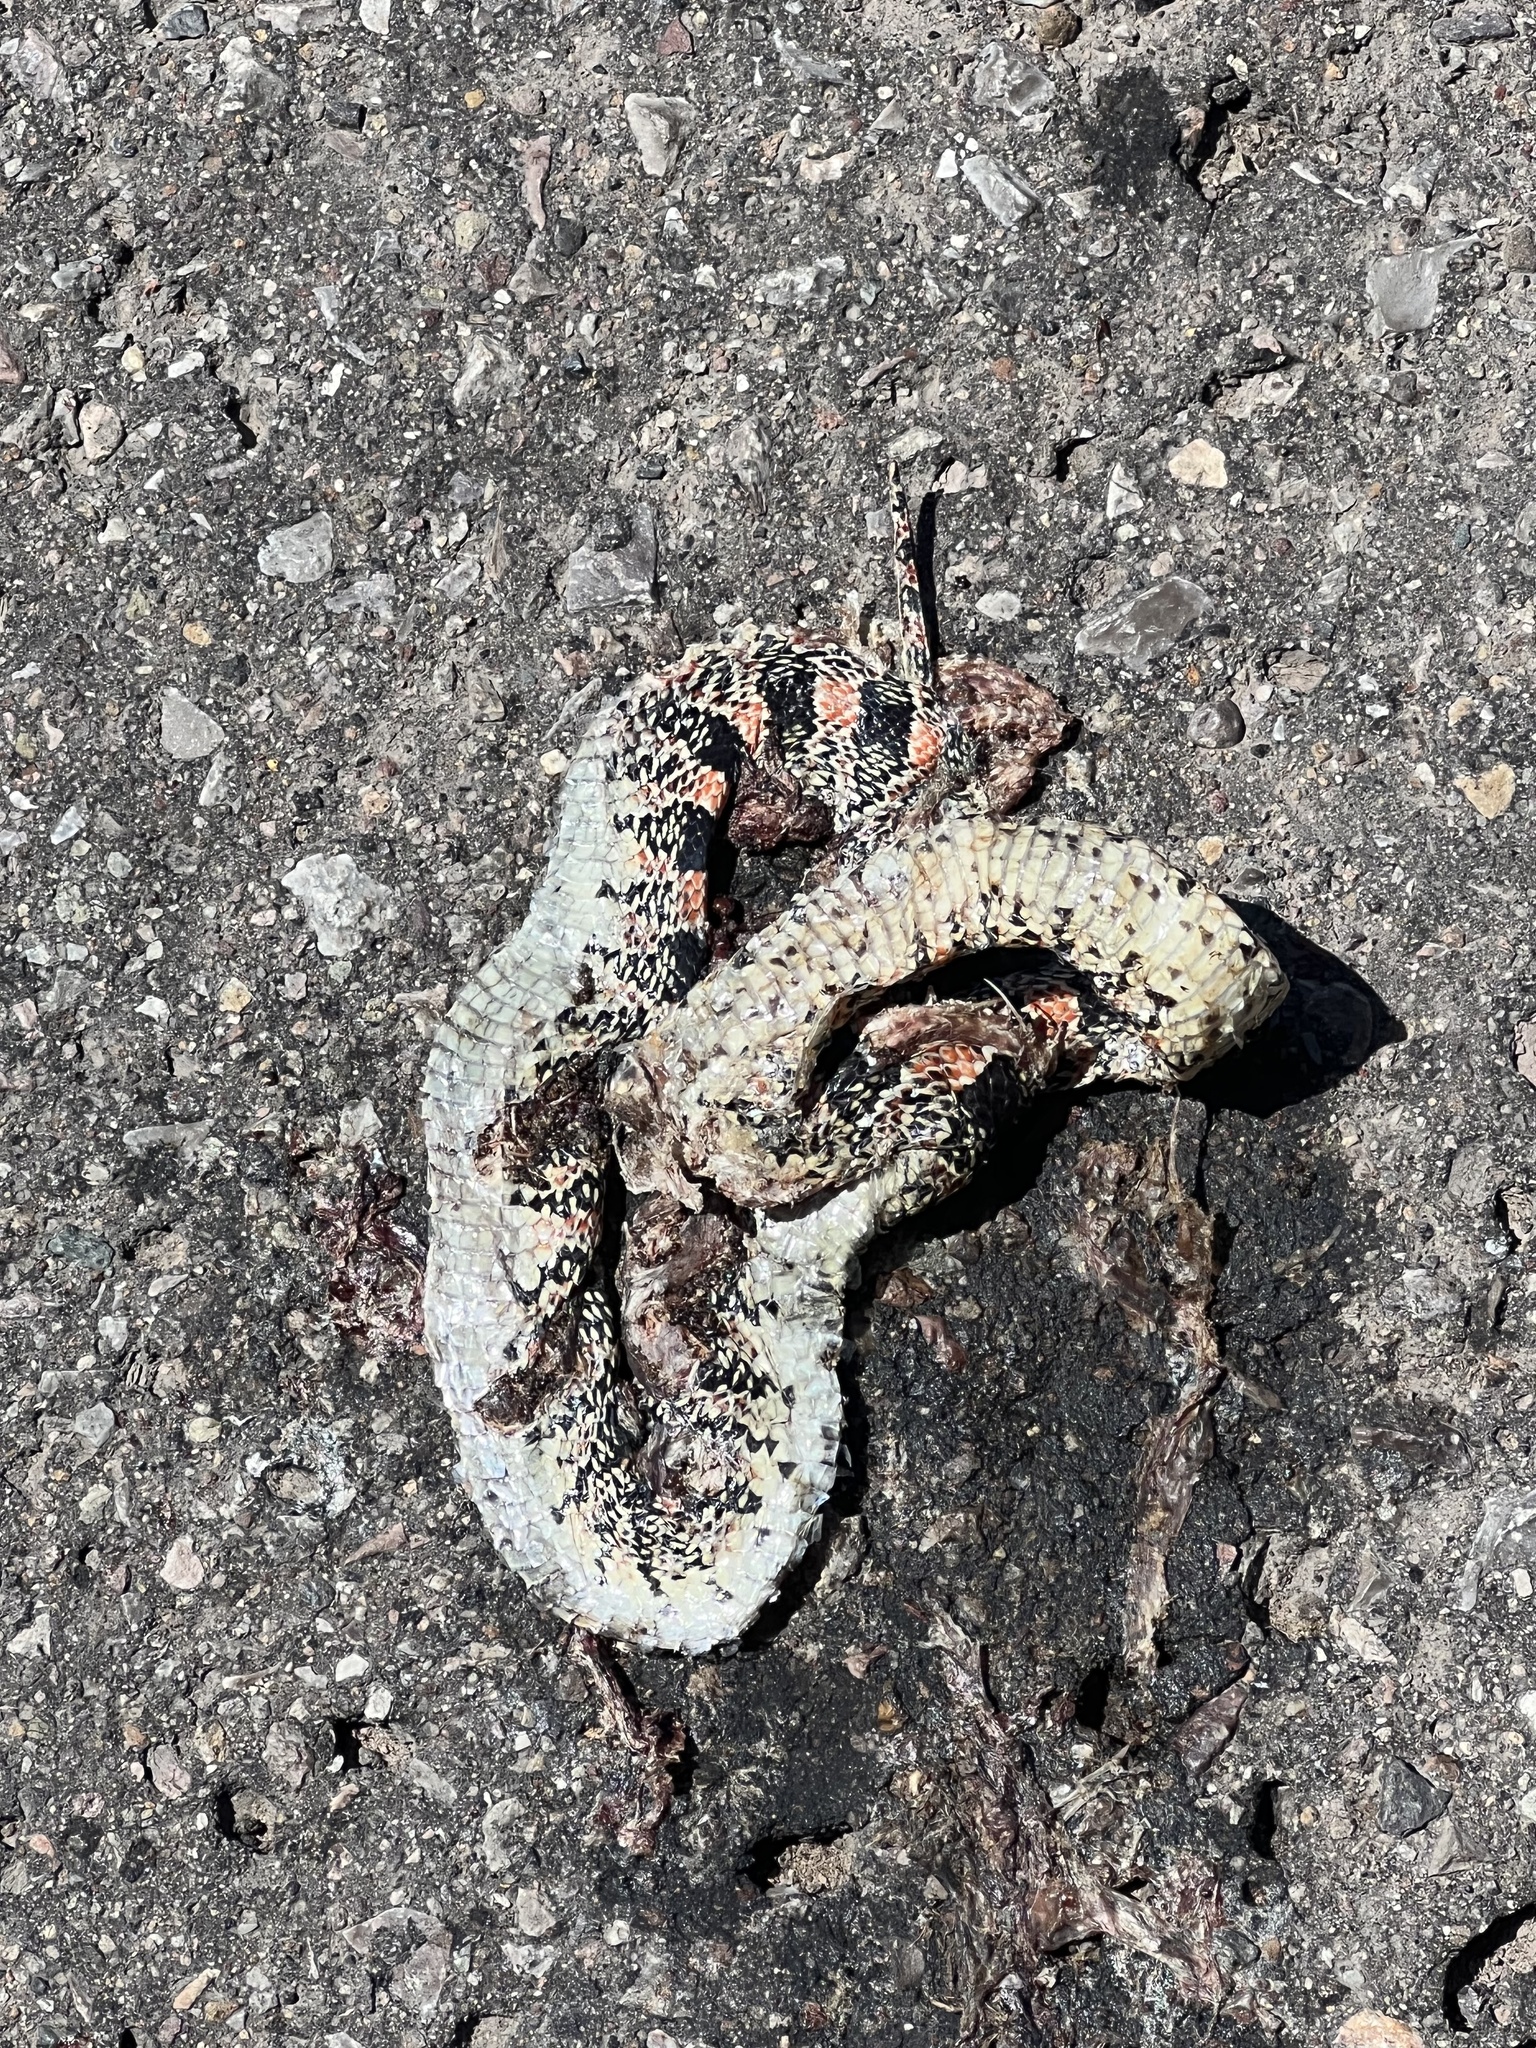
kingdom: Animalia
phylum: Chordata
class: Squamata
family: Colubridae
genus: Rhinocheilus
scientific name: Rhinocheilus lecontei
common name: Longnose snake
